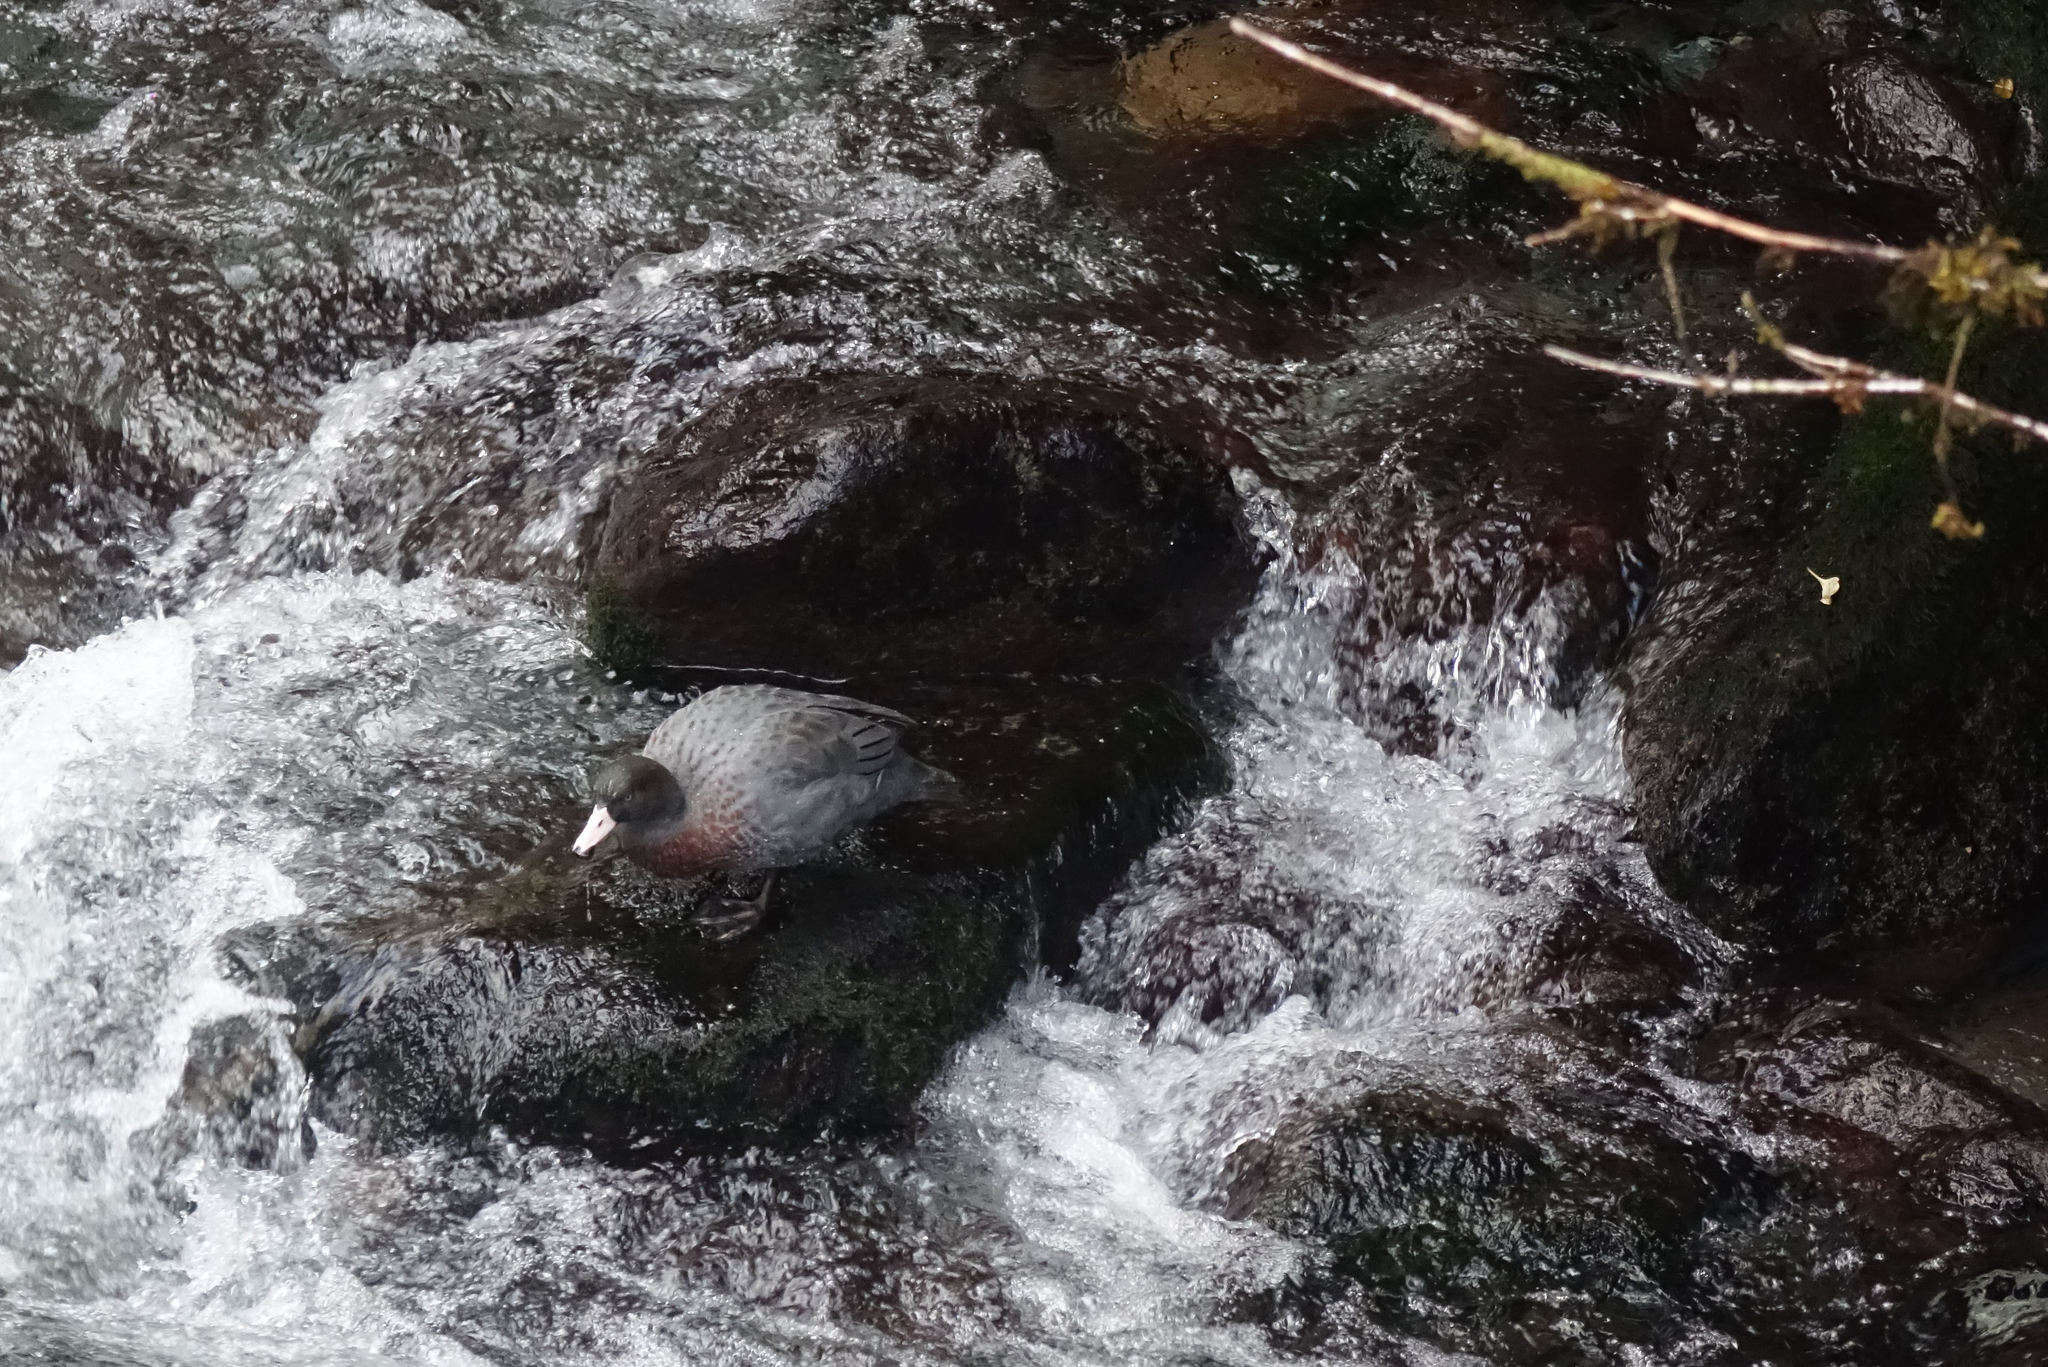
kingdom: Animalia
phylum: Chordata
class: Aves
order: Anseriformes
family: Anatidae
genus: Hymenolaimus
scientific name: Hymenolaimus malacorhynchos
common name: Blue duck
